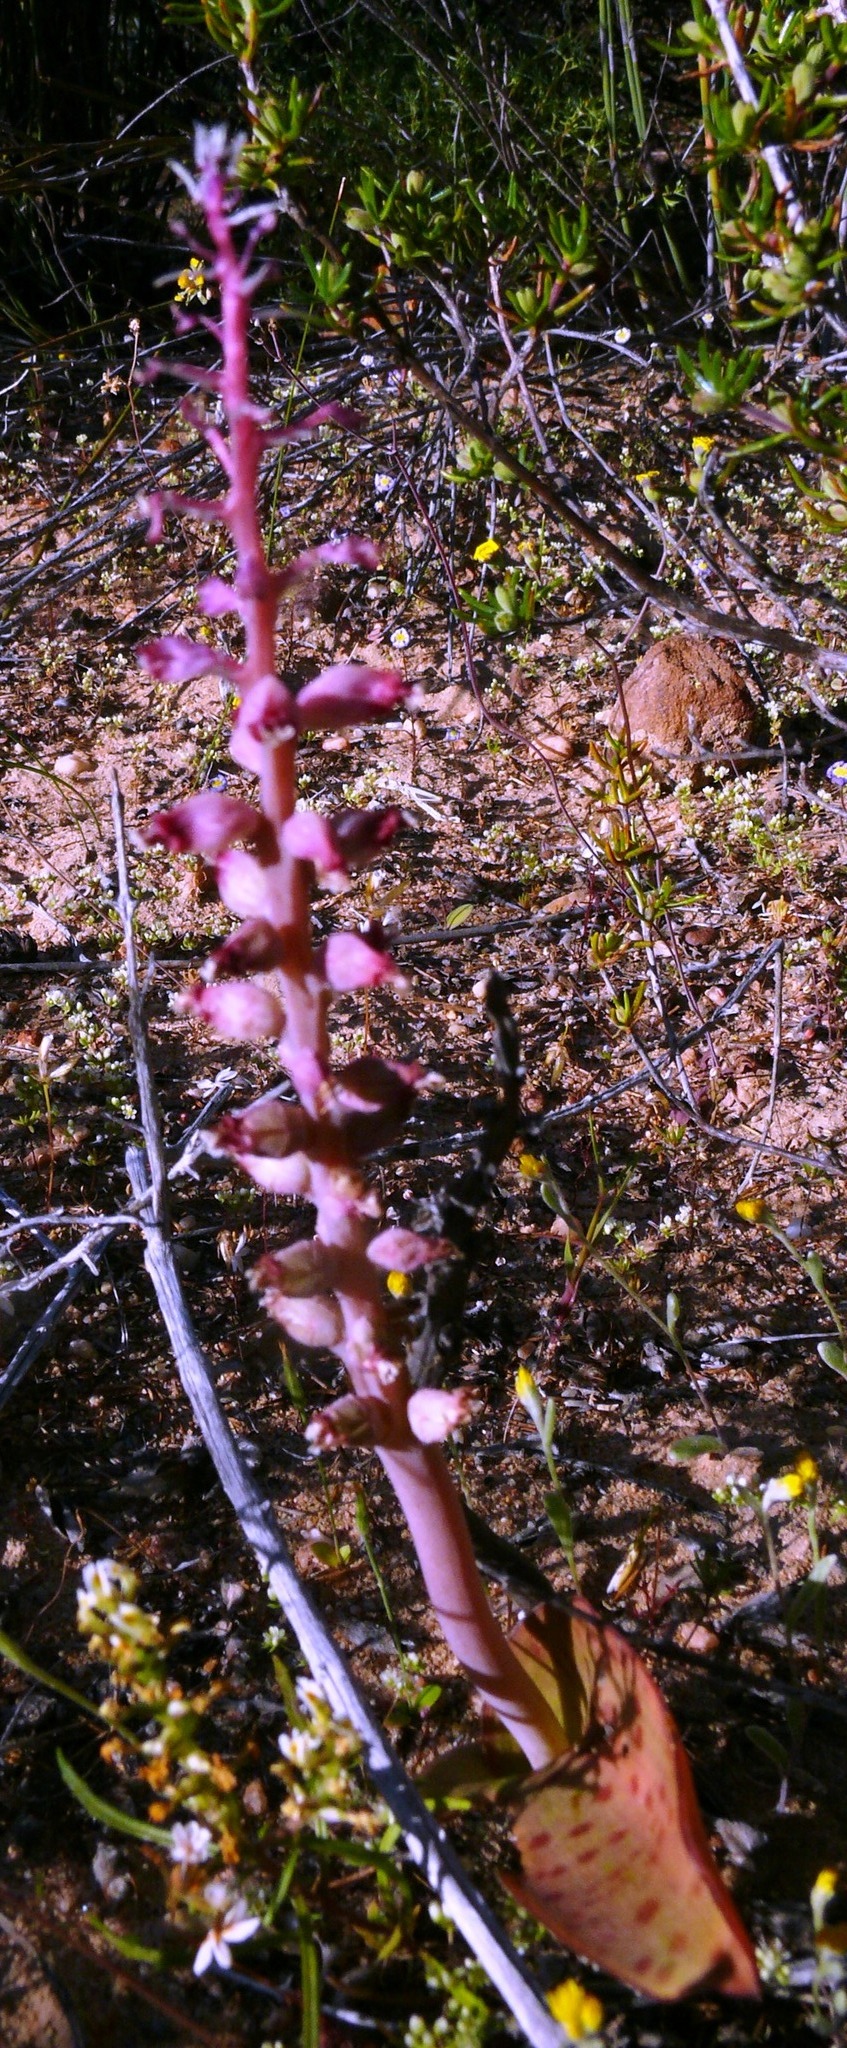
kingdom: Plantae
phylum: Tracheophyta
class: Liliopsida
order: Asparagales
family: Asparagaceae
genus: Lachenalia
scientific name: Lachenalia membranacea
